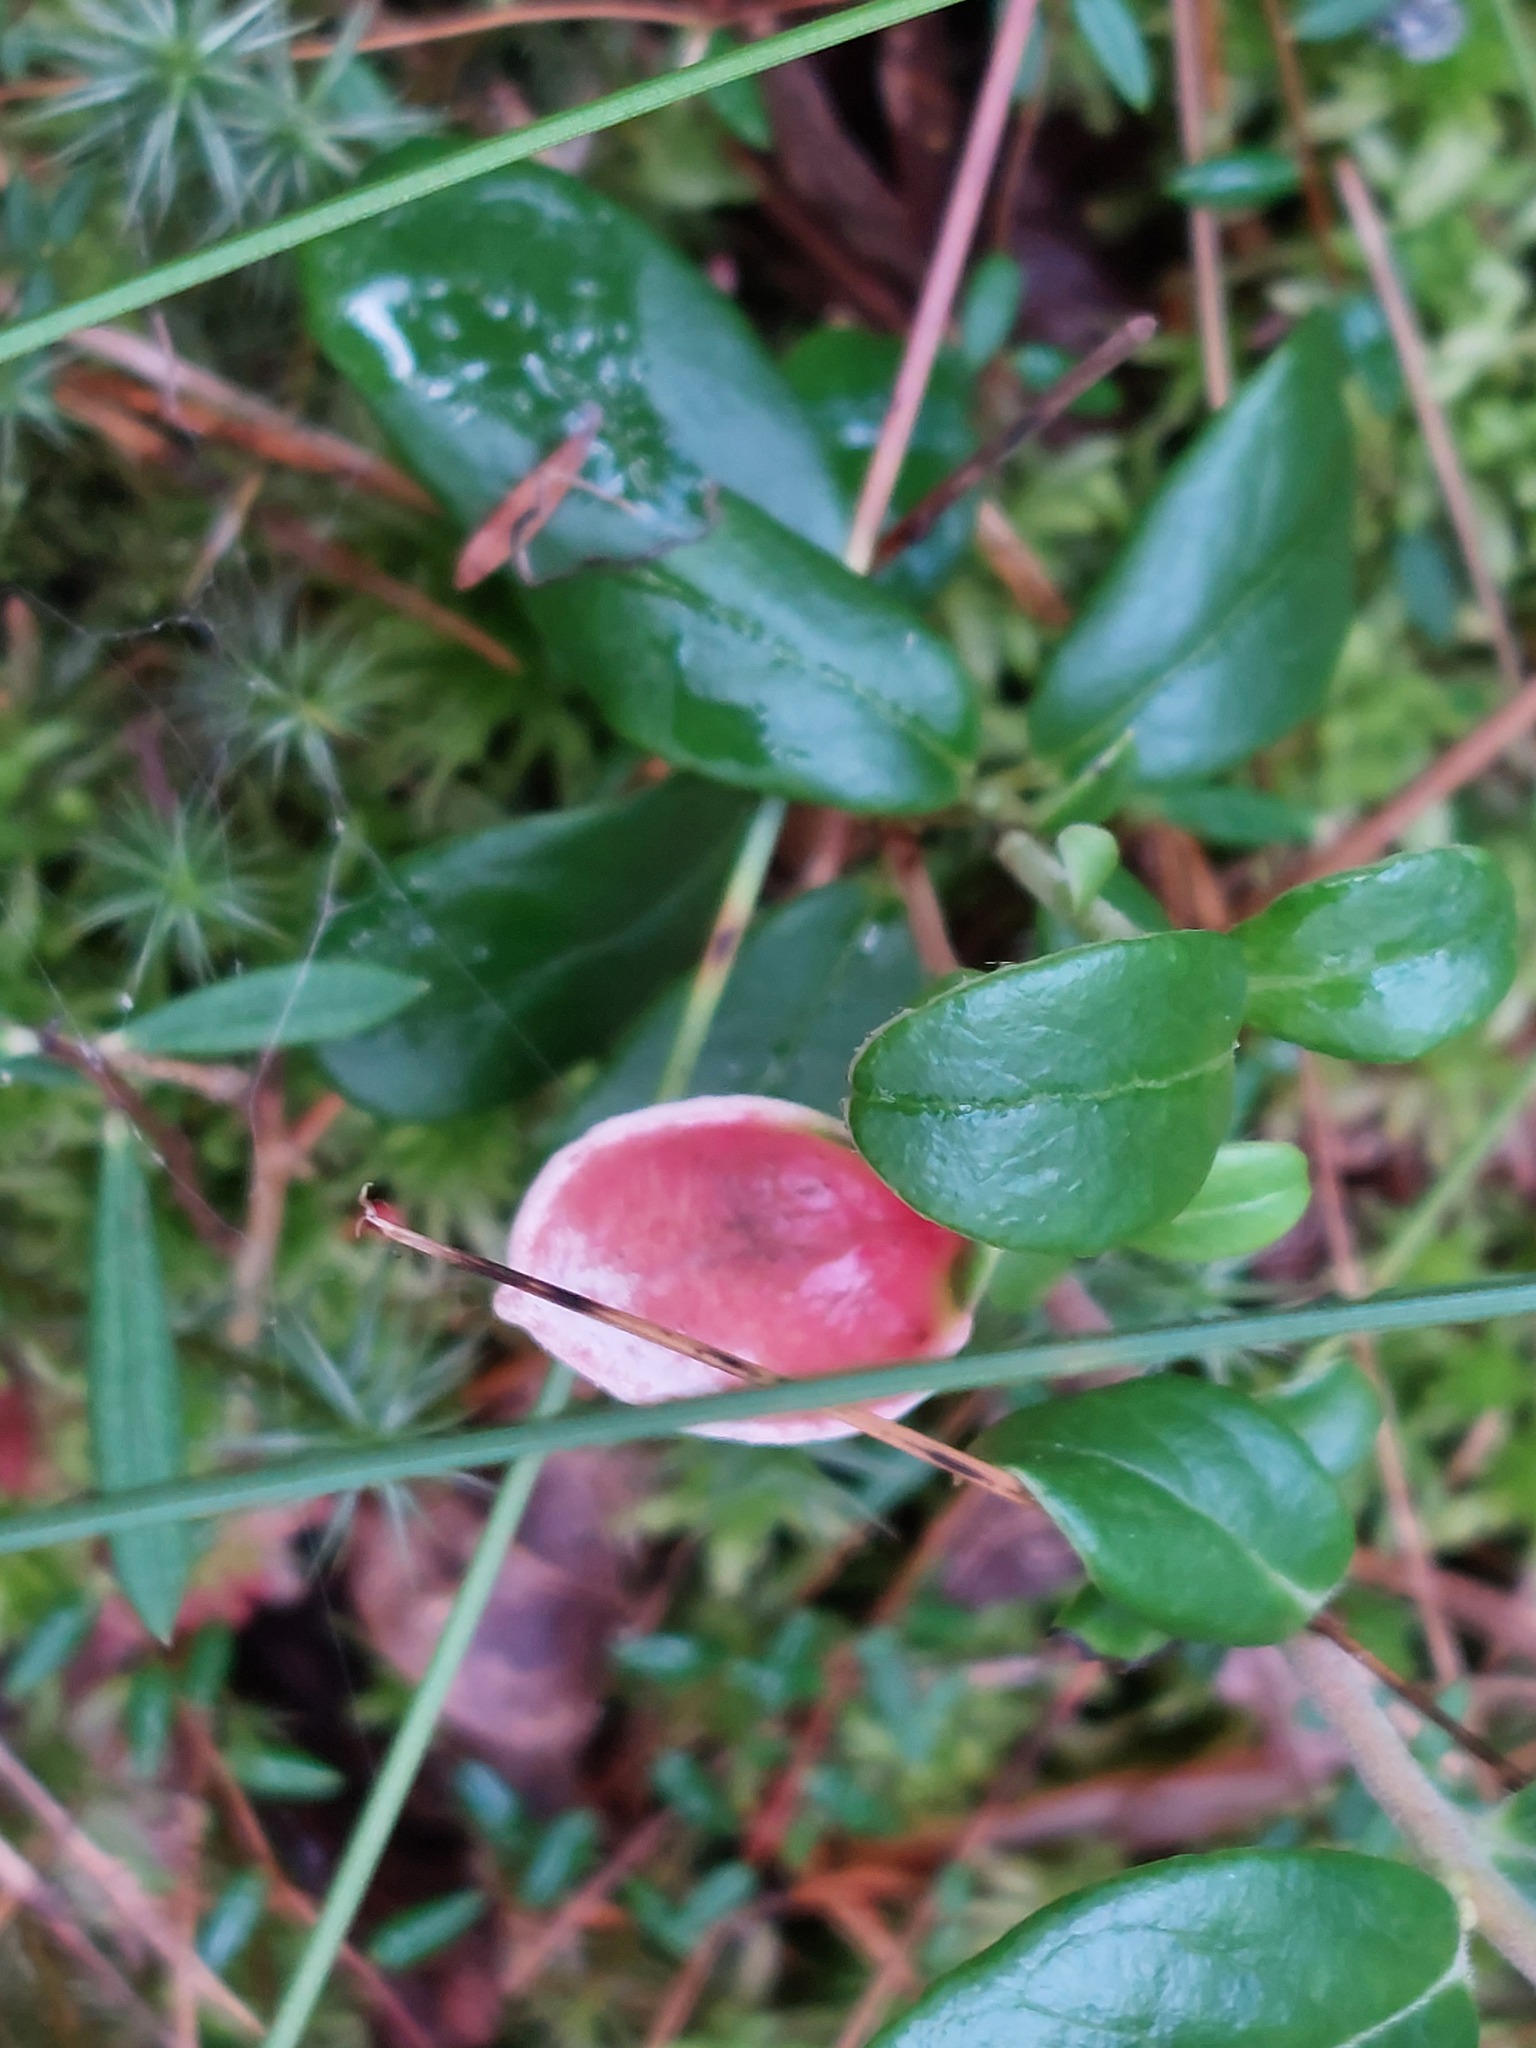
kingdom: Fungi
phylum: Basidiomycota
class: Exobasidiomycetes
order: Exobasidiales
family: Exobasidiaceae
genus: Exobasidium
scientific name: Exobasidium vaccinii
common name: Cowberry redleaf
